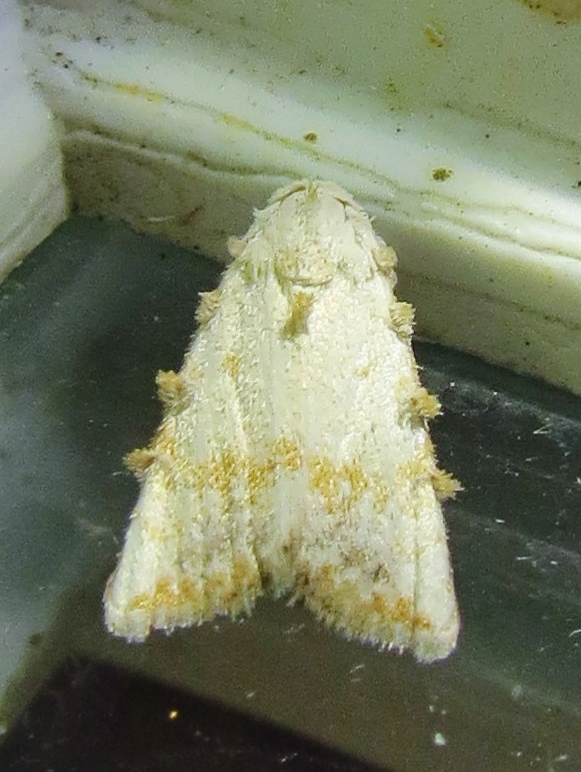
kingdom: Animalia
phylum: Arthropoda
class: Insecta
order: Lepidoptera
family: Nolidae
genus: Nola
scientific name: Nola cereella
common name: Sorghum webworm moth
